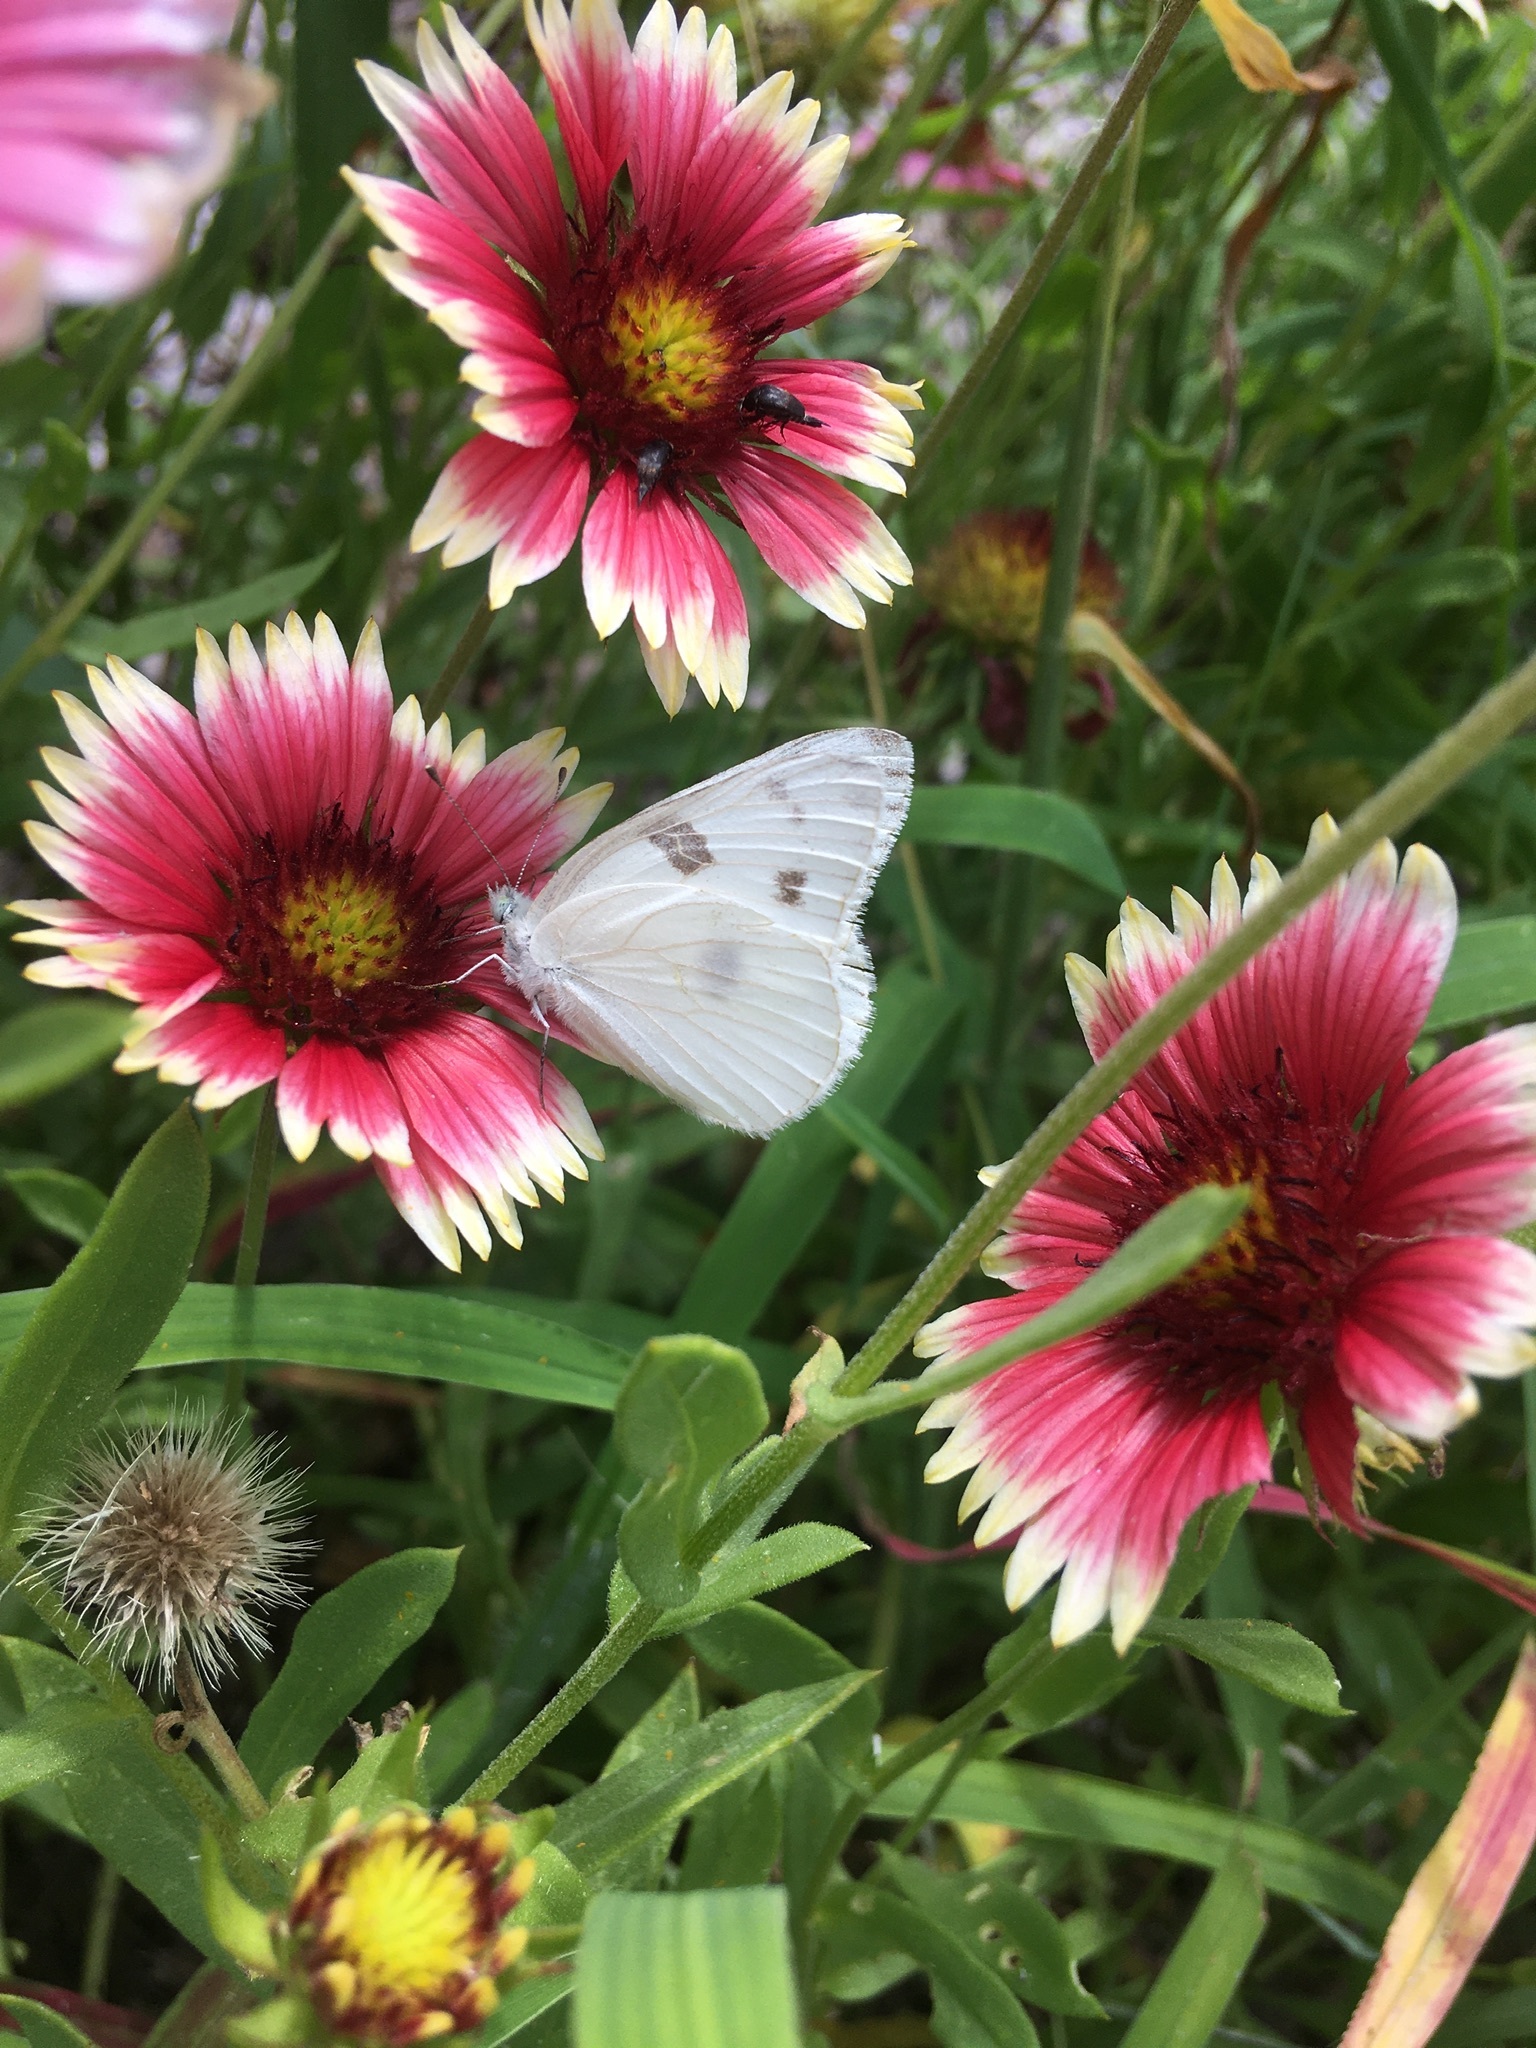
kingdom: Animalia
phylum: Arthropoda
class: Insecta
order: Lepidoptera
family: Pieridae
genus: Pontia
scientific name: Pontia protodice
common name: Checkered white
